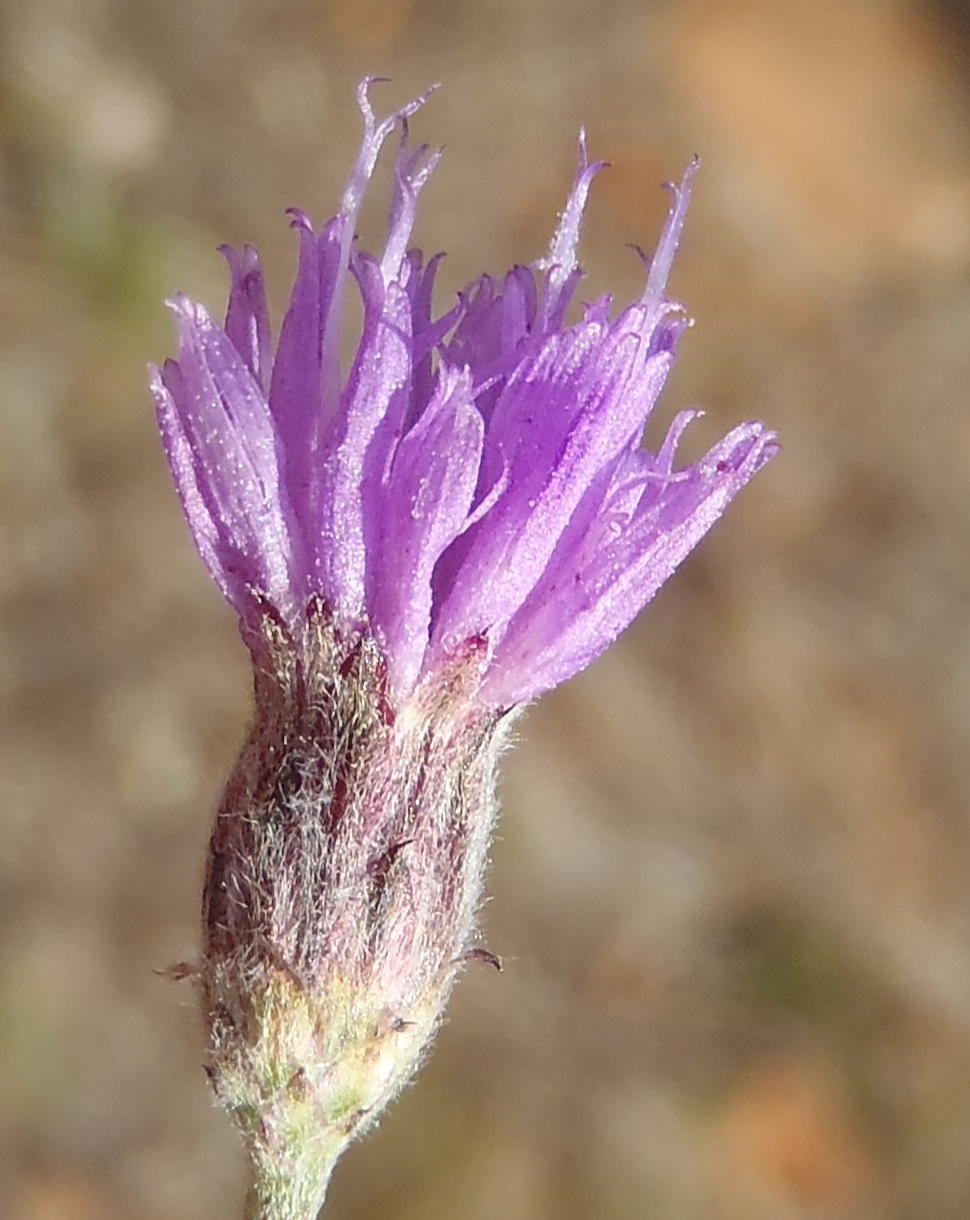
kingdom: Plantae
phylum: Tracheophyta
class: Magnoliopsida
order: Asterales
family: Asteraceae
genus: Crystallopollen
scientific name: Crystallopollen angustifolium
